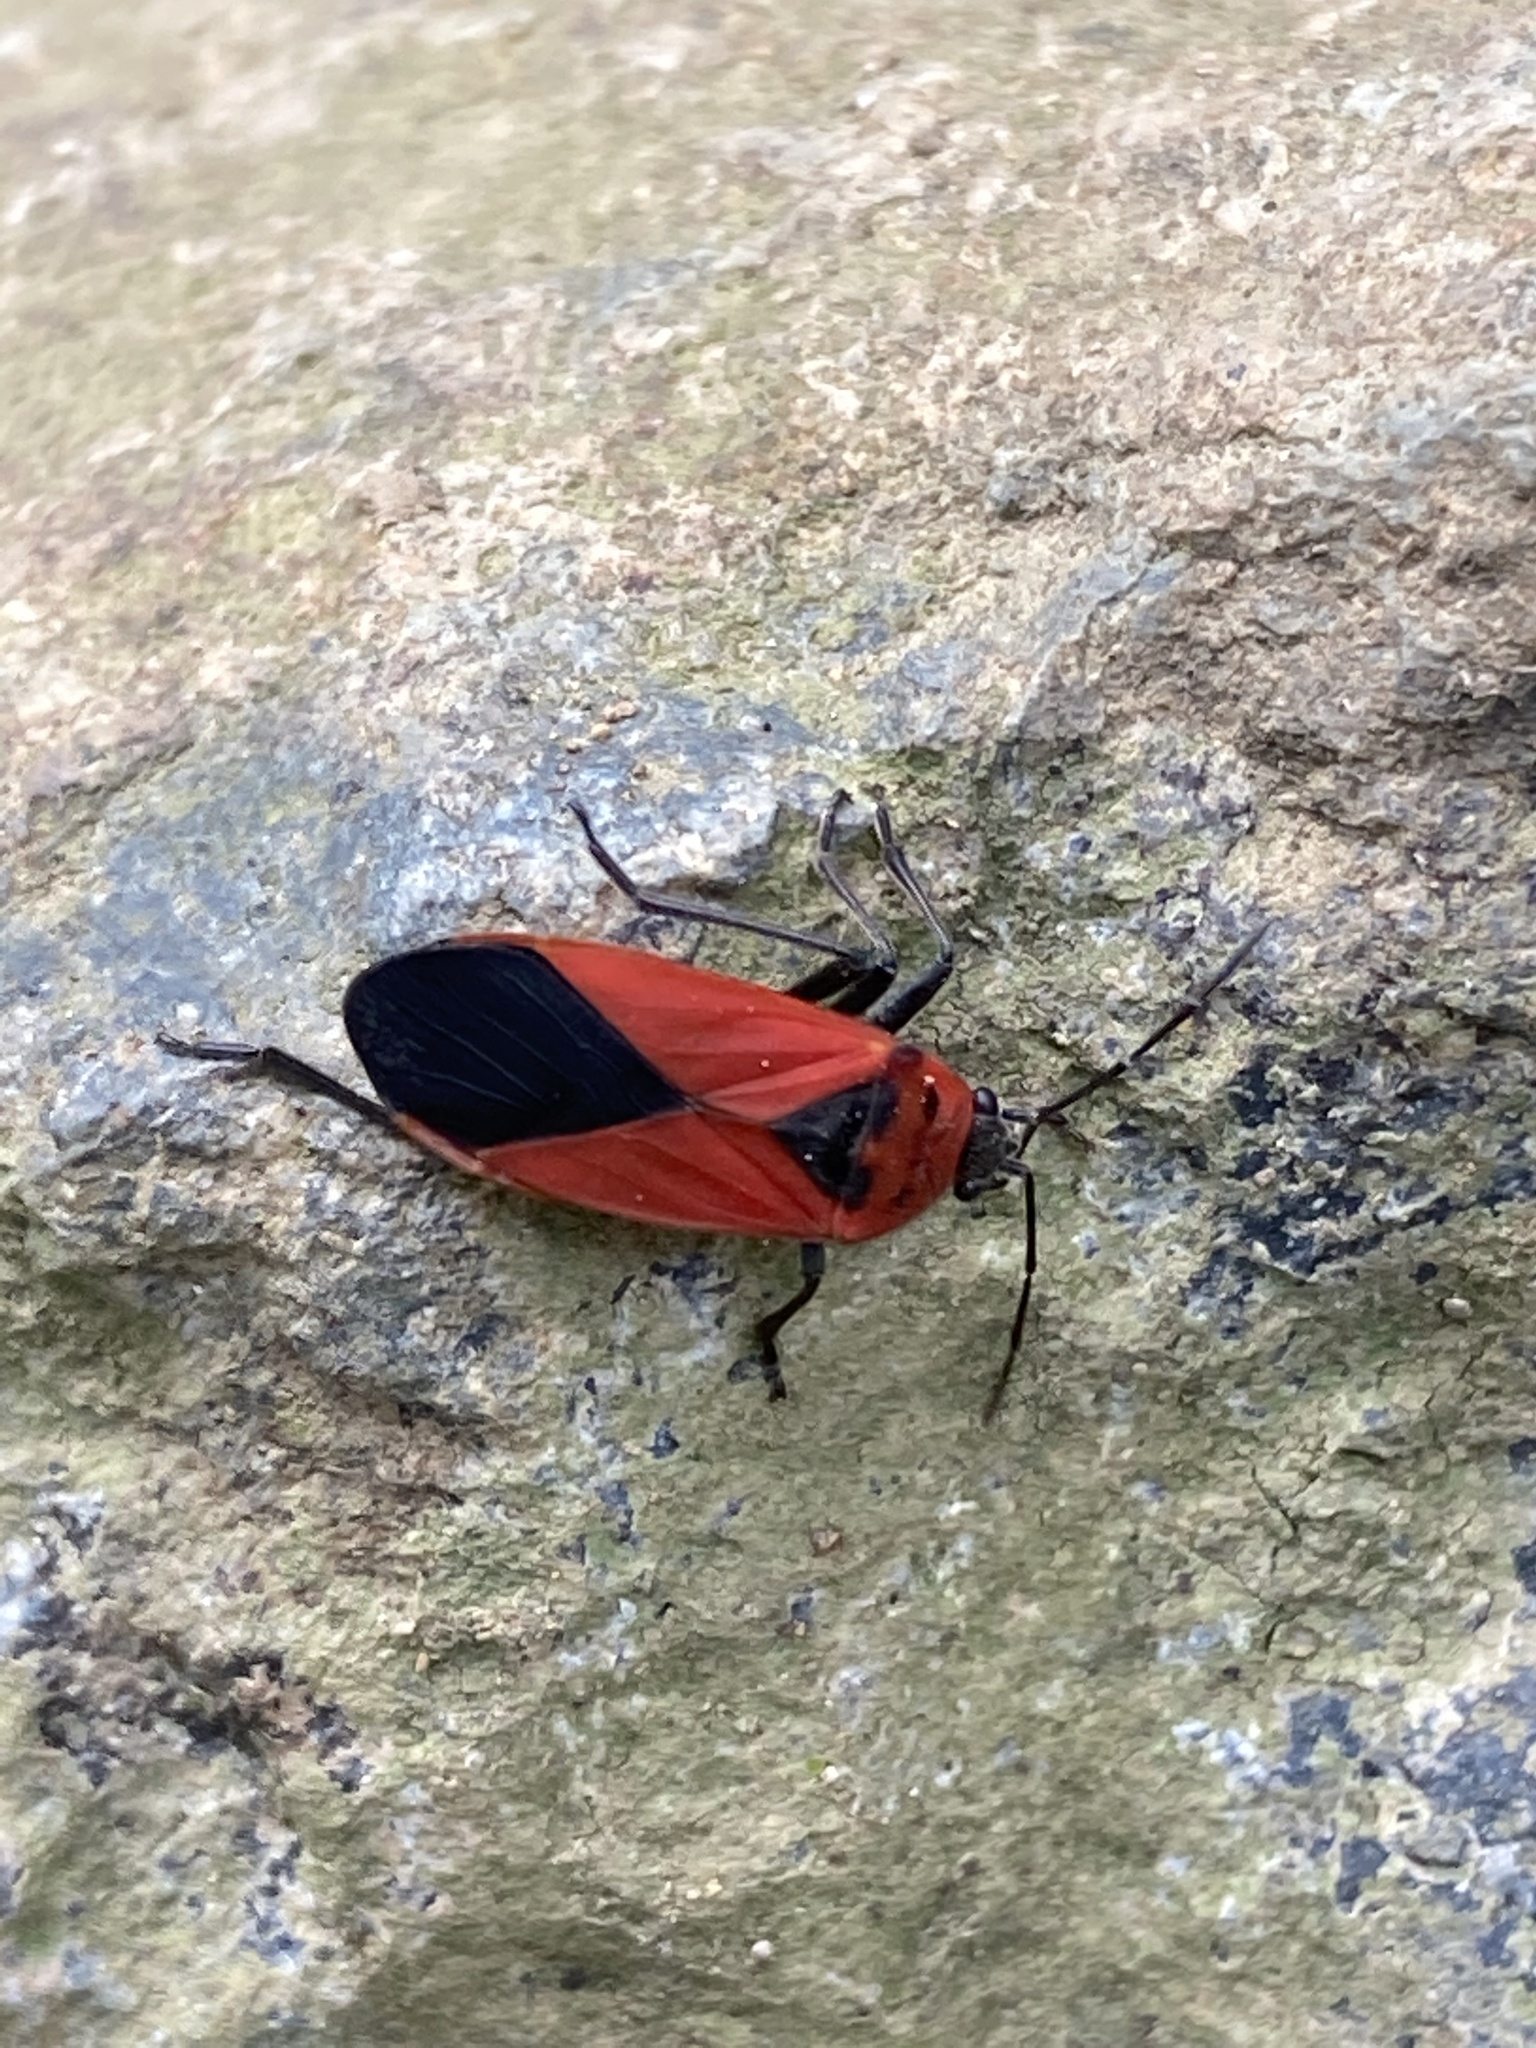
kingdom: Animalia
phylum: Arthropoda
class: Insecta
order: Hemiptera
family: Lygaeidae
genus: Dalmochrimnus
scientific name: Dalmochrimnus nigriguttulus
